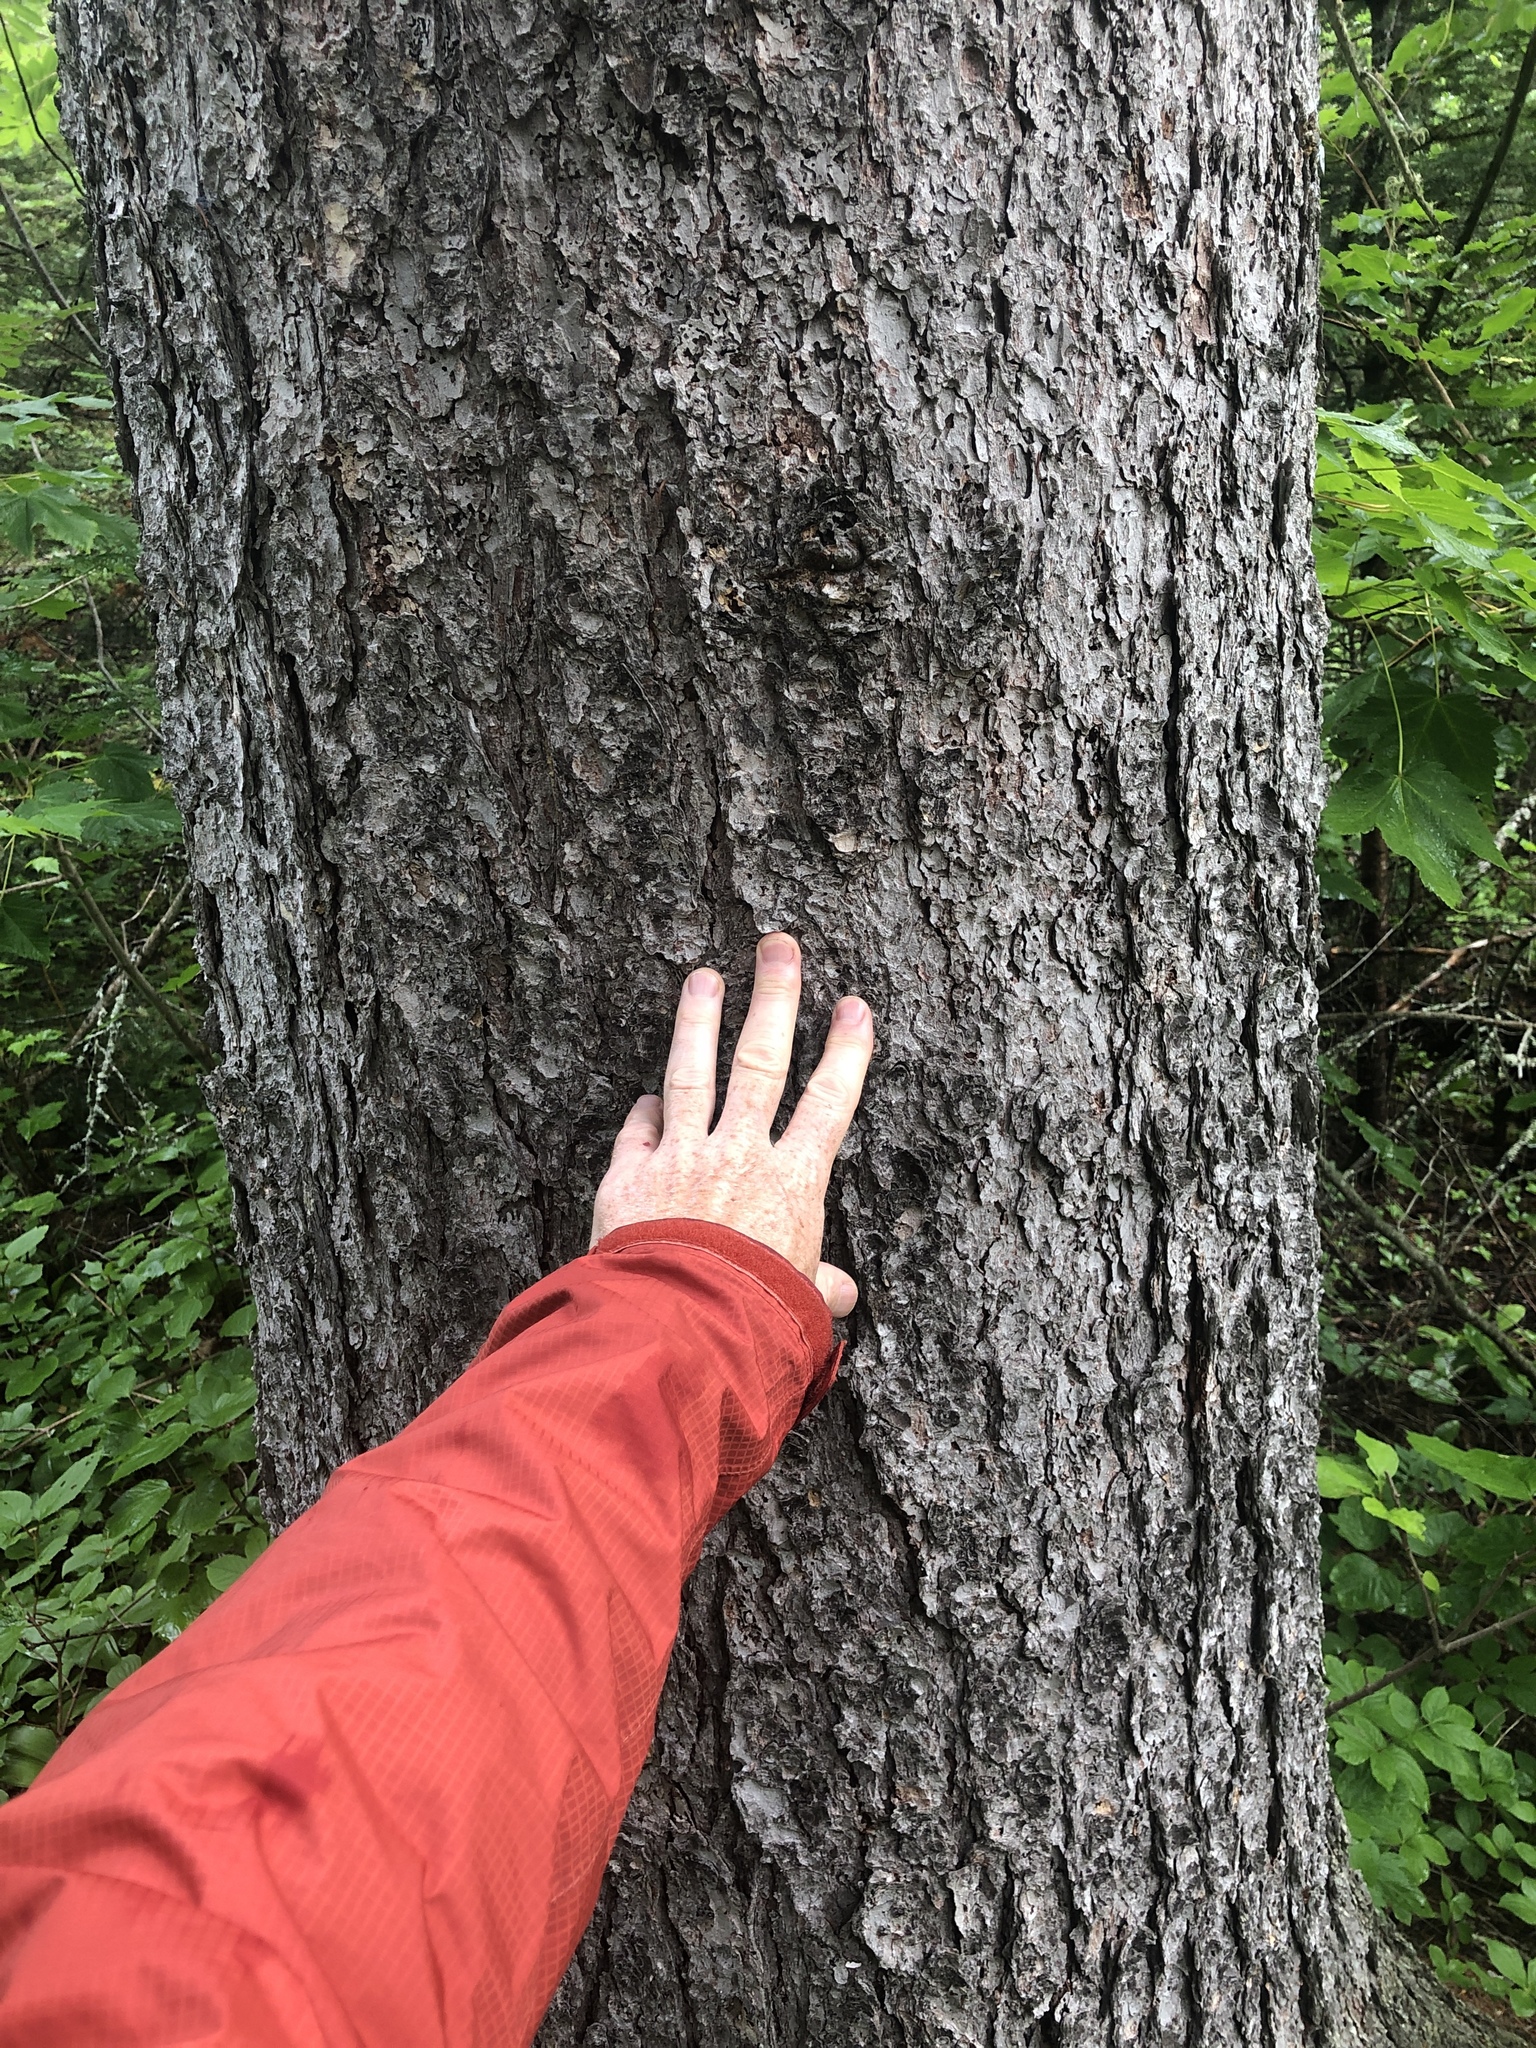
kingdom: Plantae
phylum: Tracheophyta
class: Pinopsida
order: Pinales
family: Pinaceae
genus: Picea
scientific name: Picea glauca
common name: White spruce
